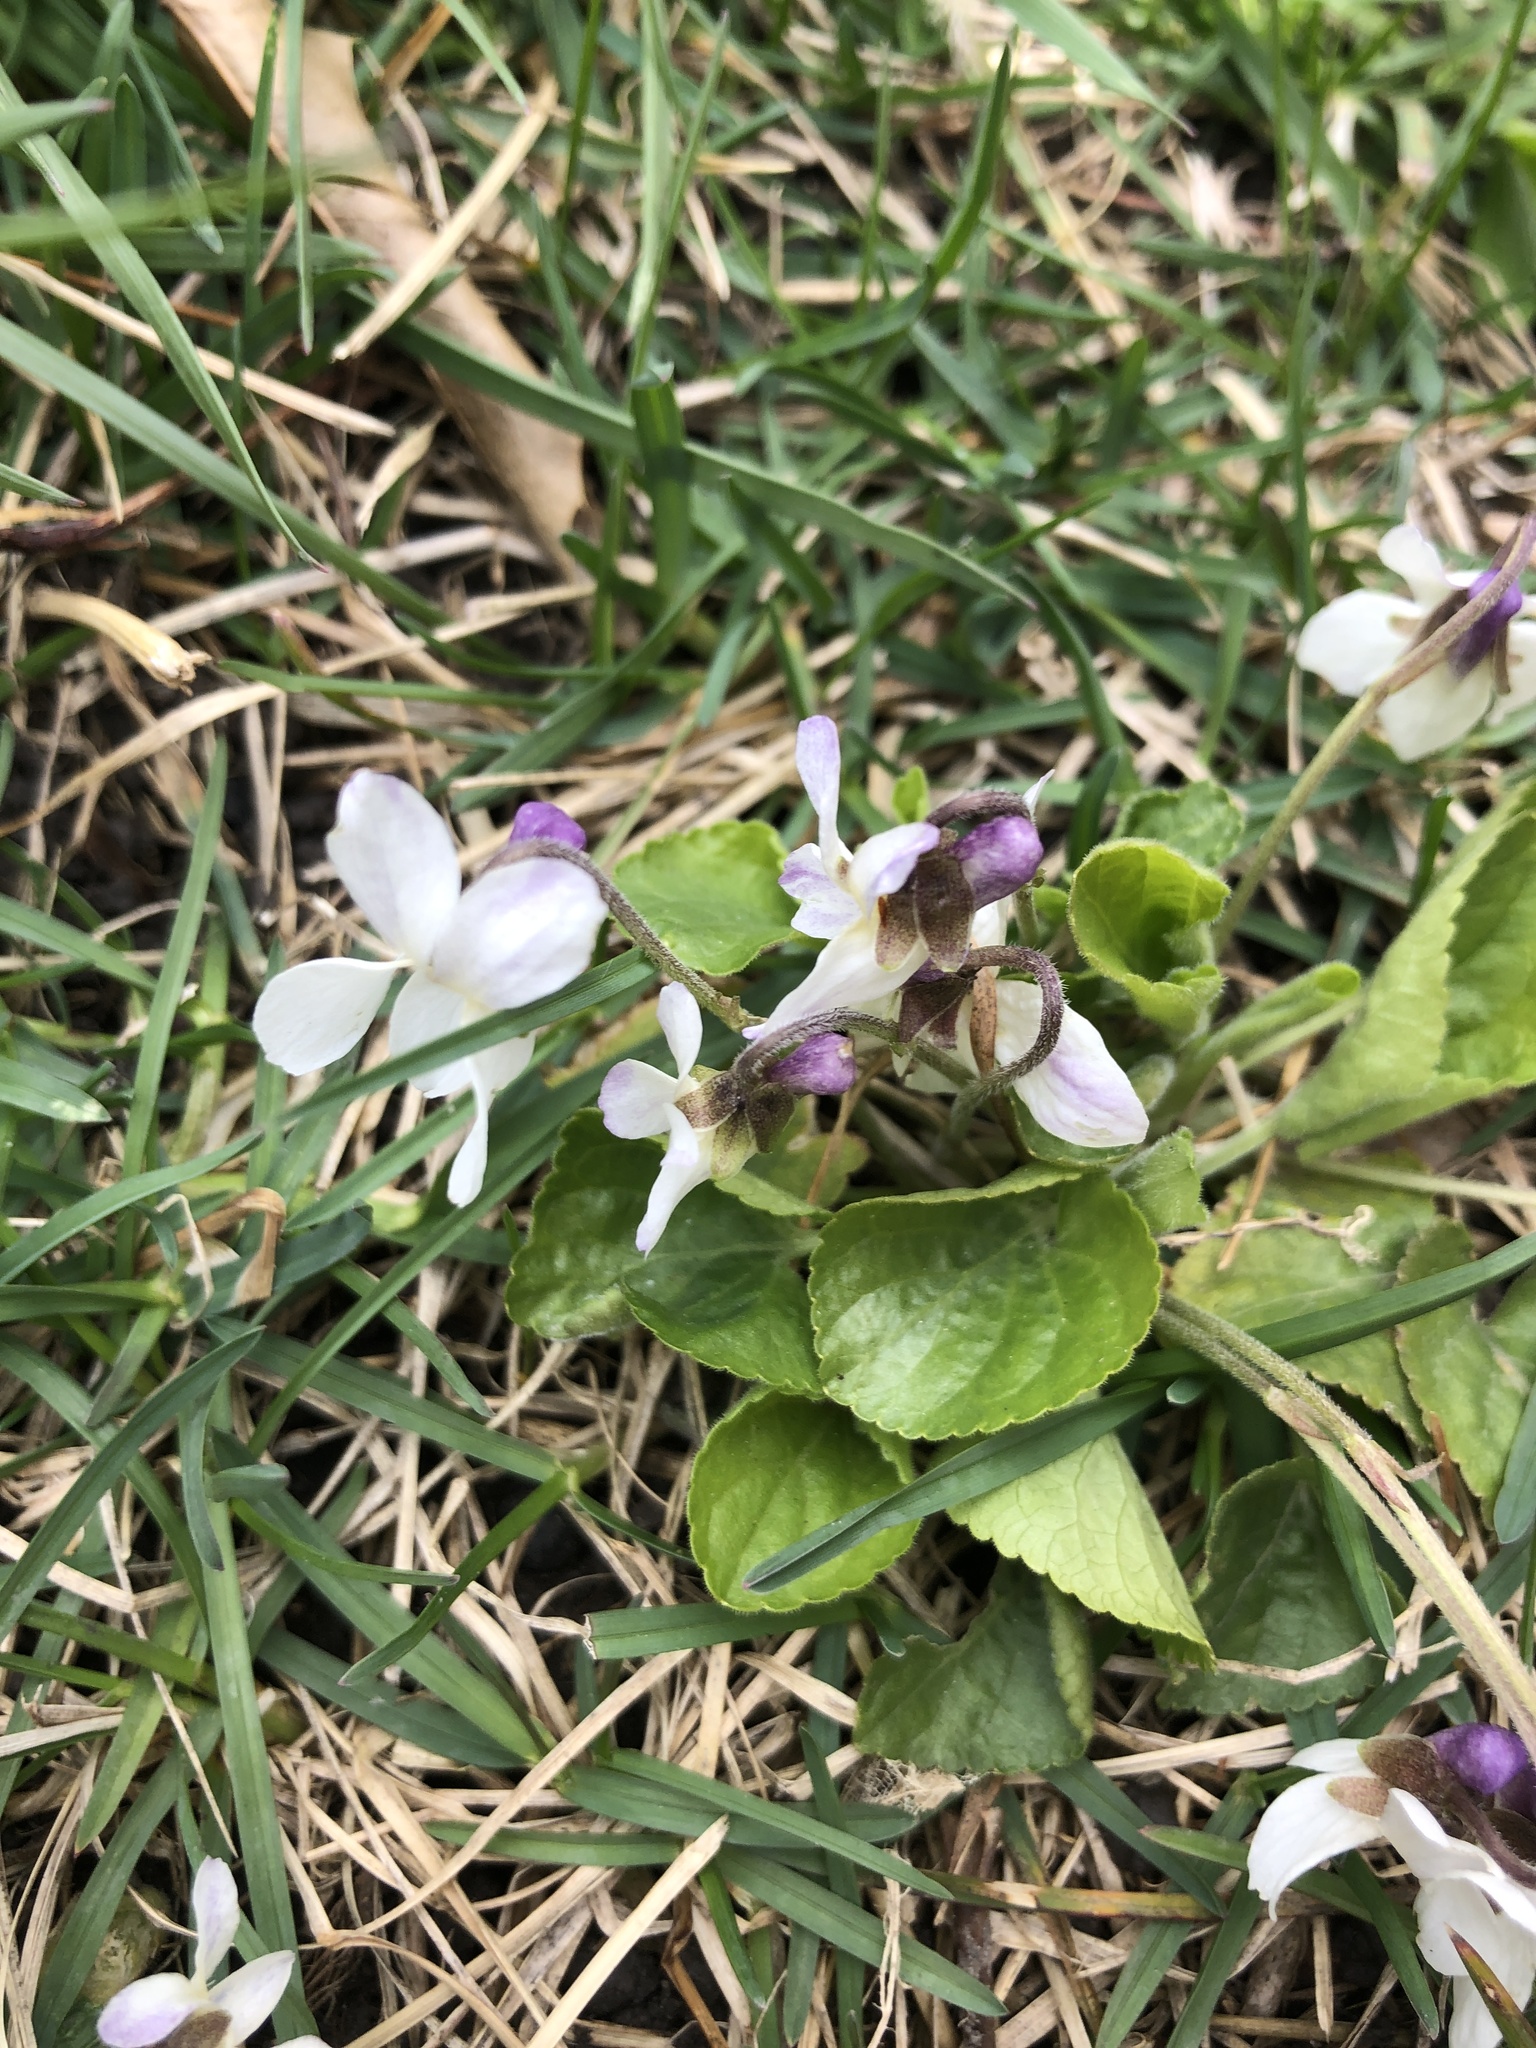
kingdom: Plantae
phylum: Tracheophyta
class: Magnoliopsida
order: Malpighiales
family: Violaceae
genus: Viola
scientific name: Viola odorata
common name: Sweet violet
